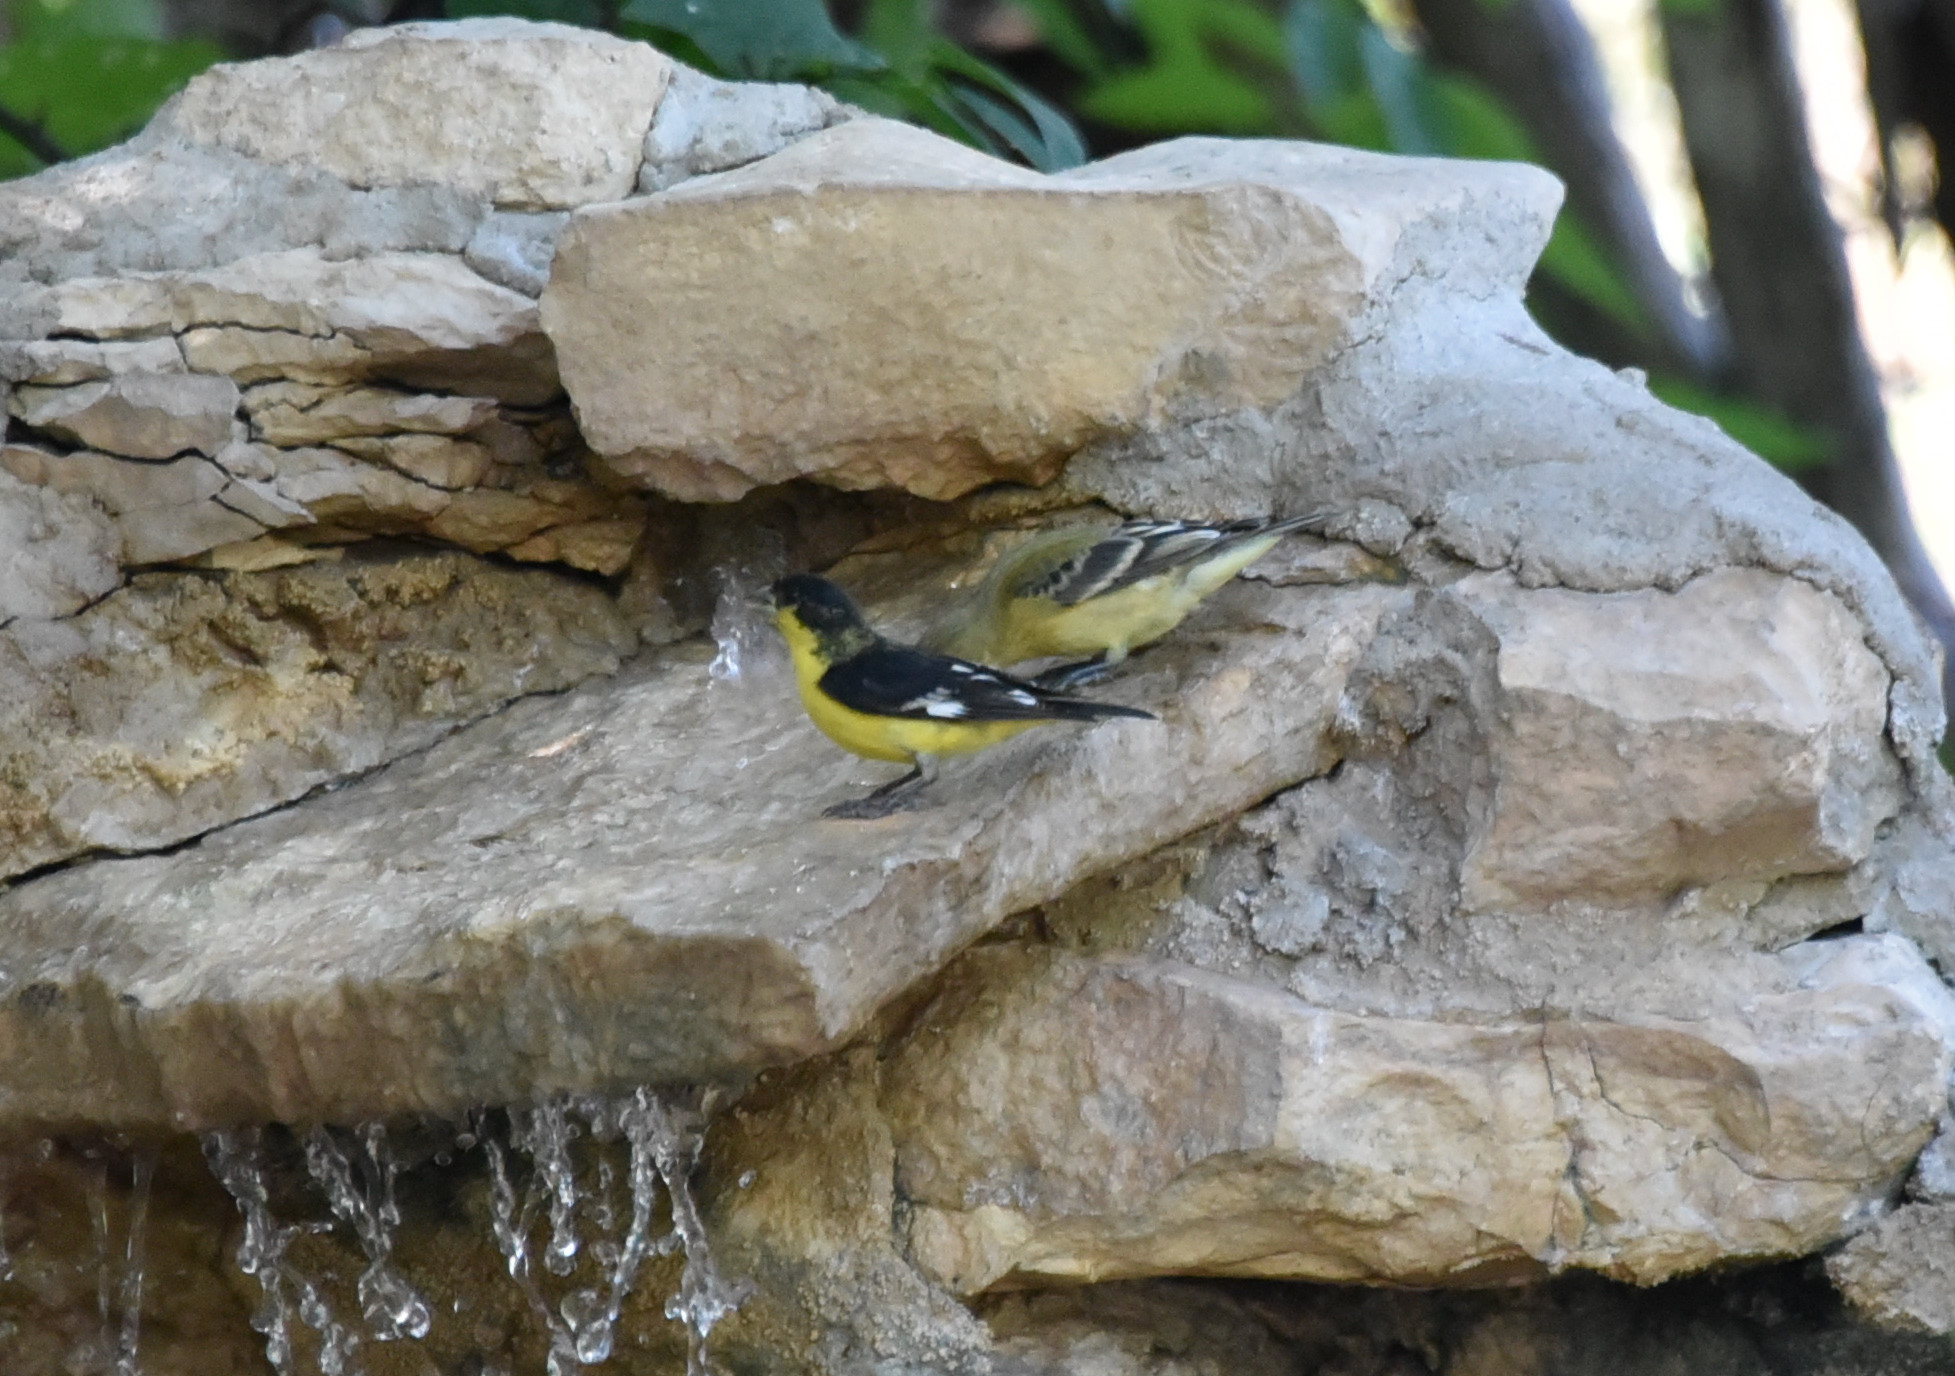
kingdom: Animalia
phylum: Chordata
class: Aves
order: Passeriformes
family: Fringillidae
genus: Spinus
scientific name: Spinus psaltria
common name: Lesser goldfinch
